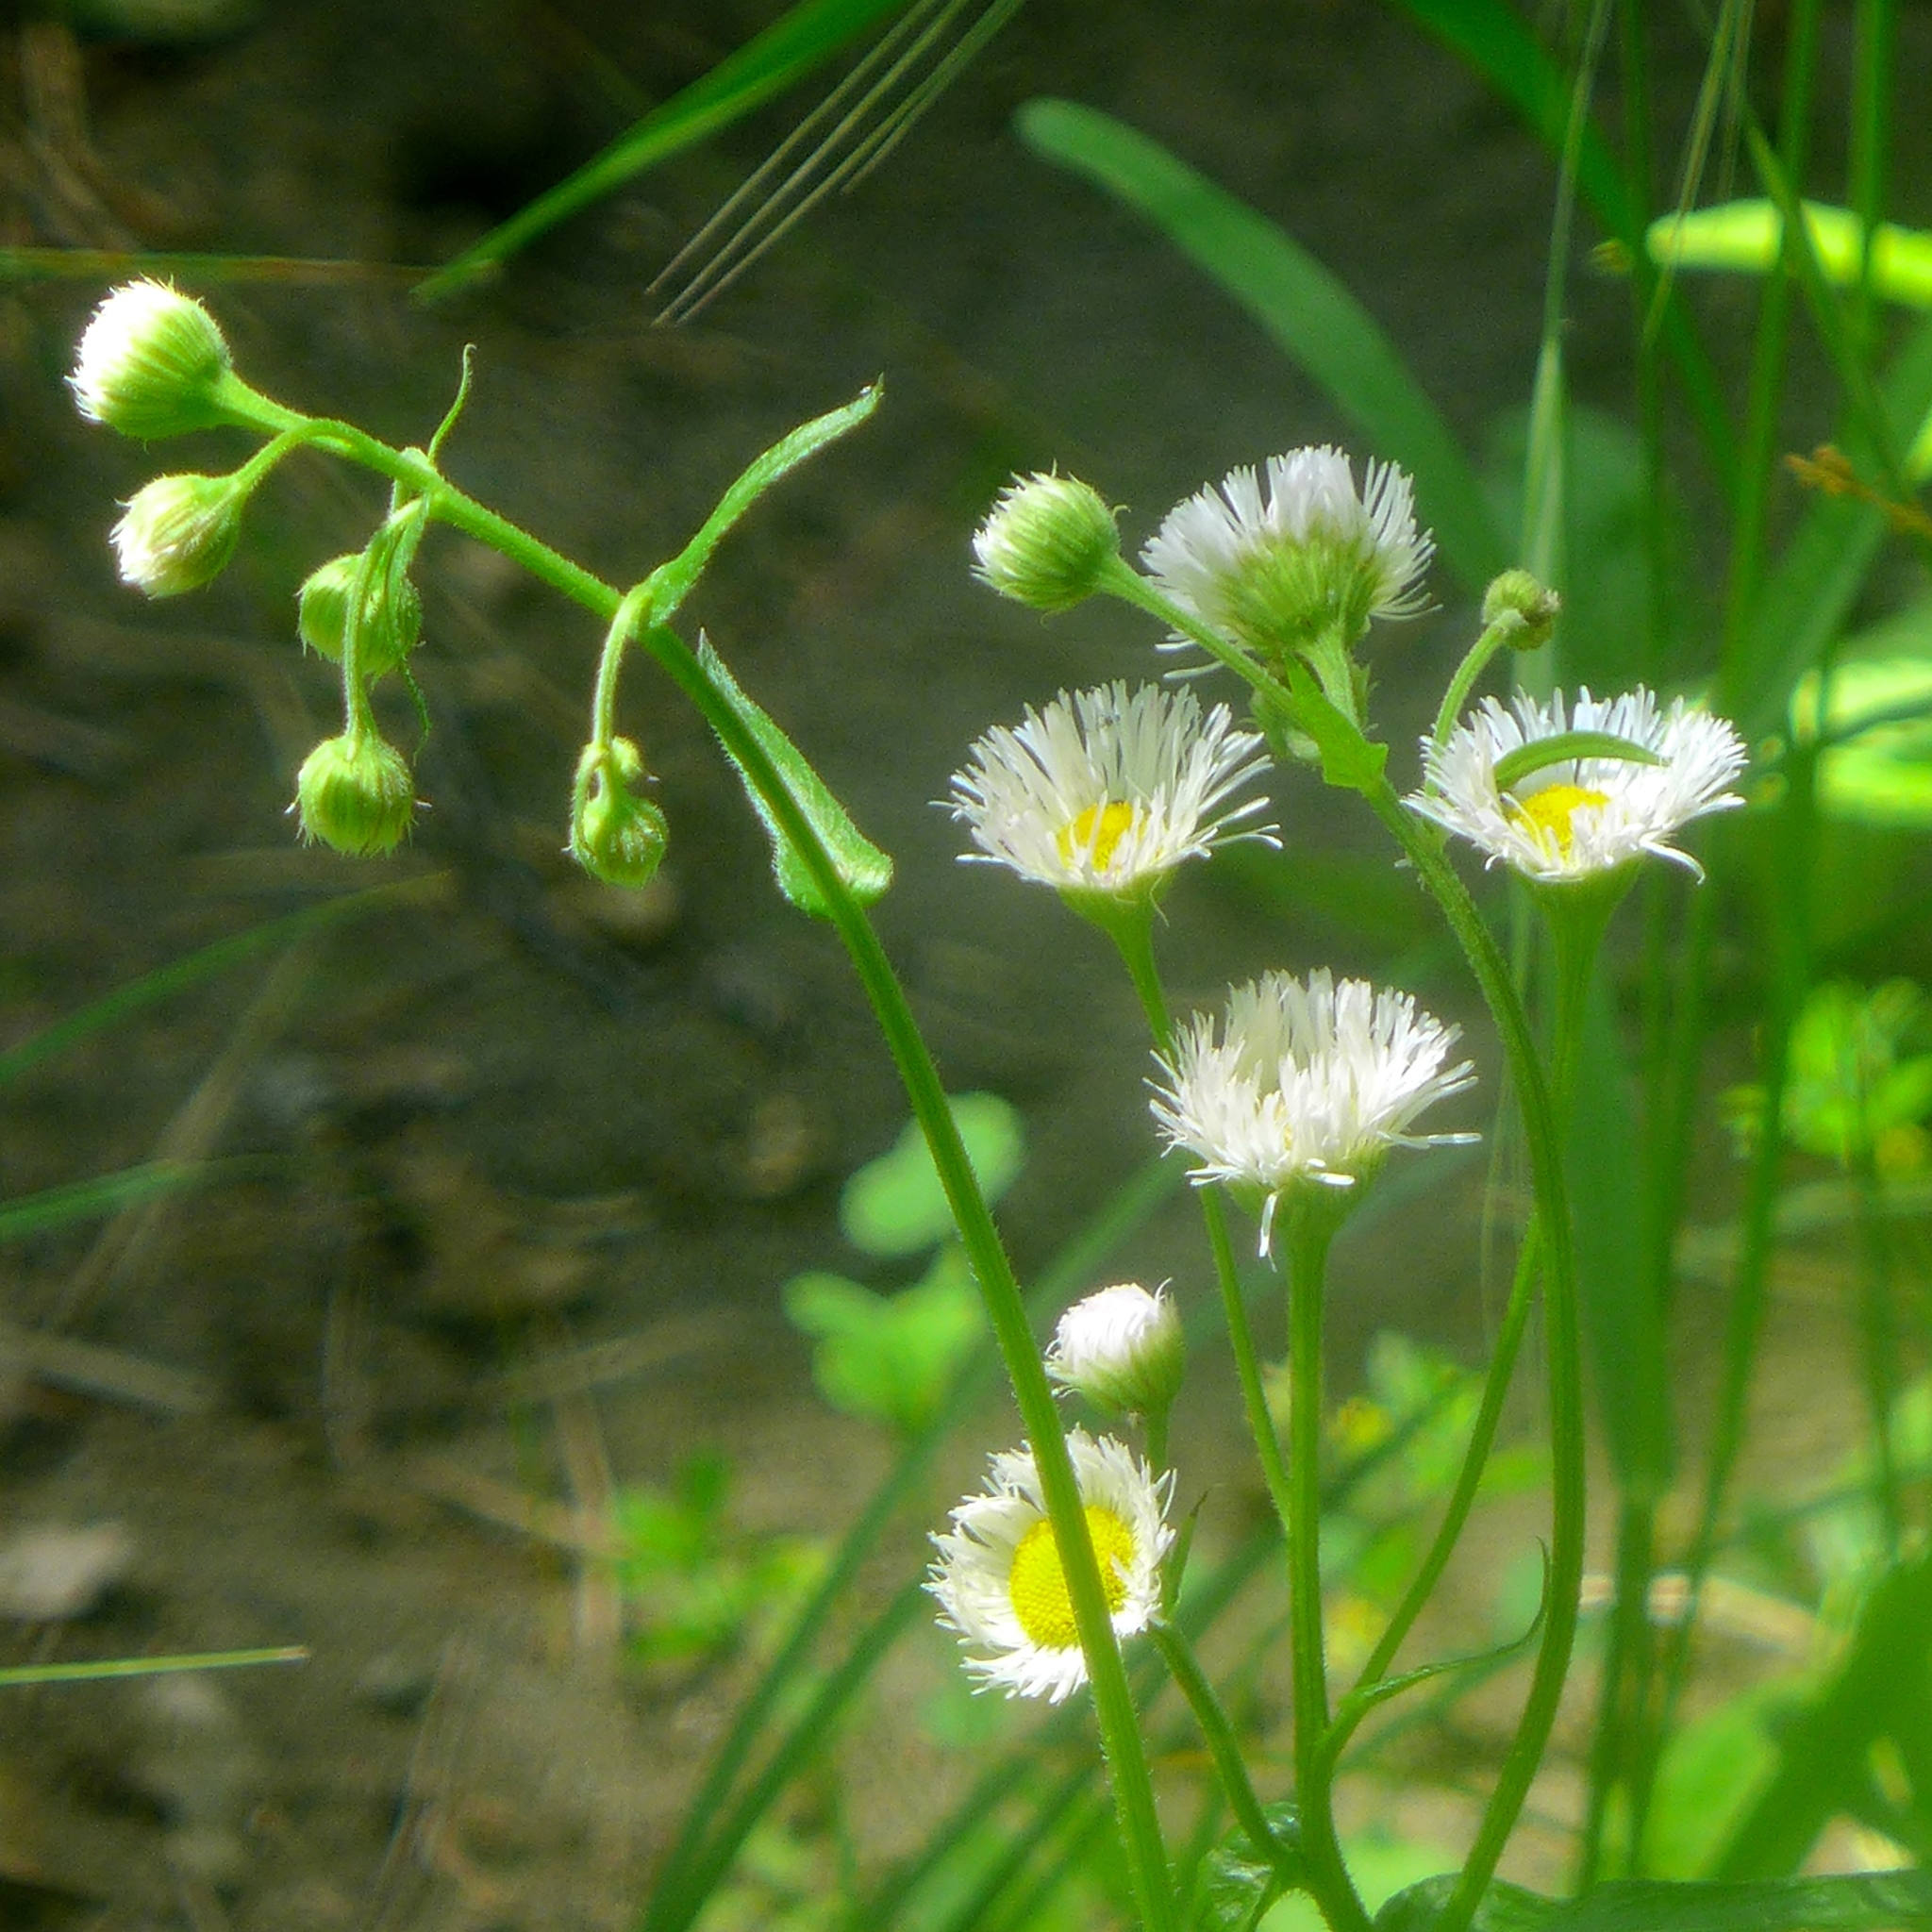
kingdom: Plantae
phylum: Tracheophyta
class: Magnoliopsida
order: Asterales
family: Asteraceae
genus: Erigeron
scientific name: Erigeron philadelphicus
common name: Robin's-plantain
